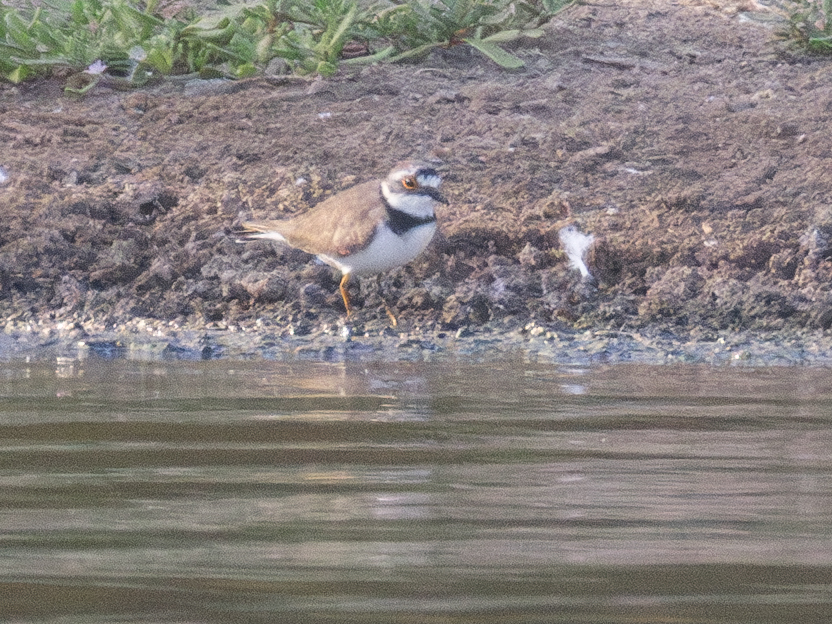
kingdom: Animalia
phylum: Chordata
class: Aves
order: Charadriiformes
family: Charadriidae
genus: Charadrius
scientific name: Charadrius dubius
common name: Little ringed plover
